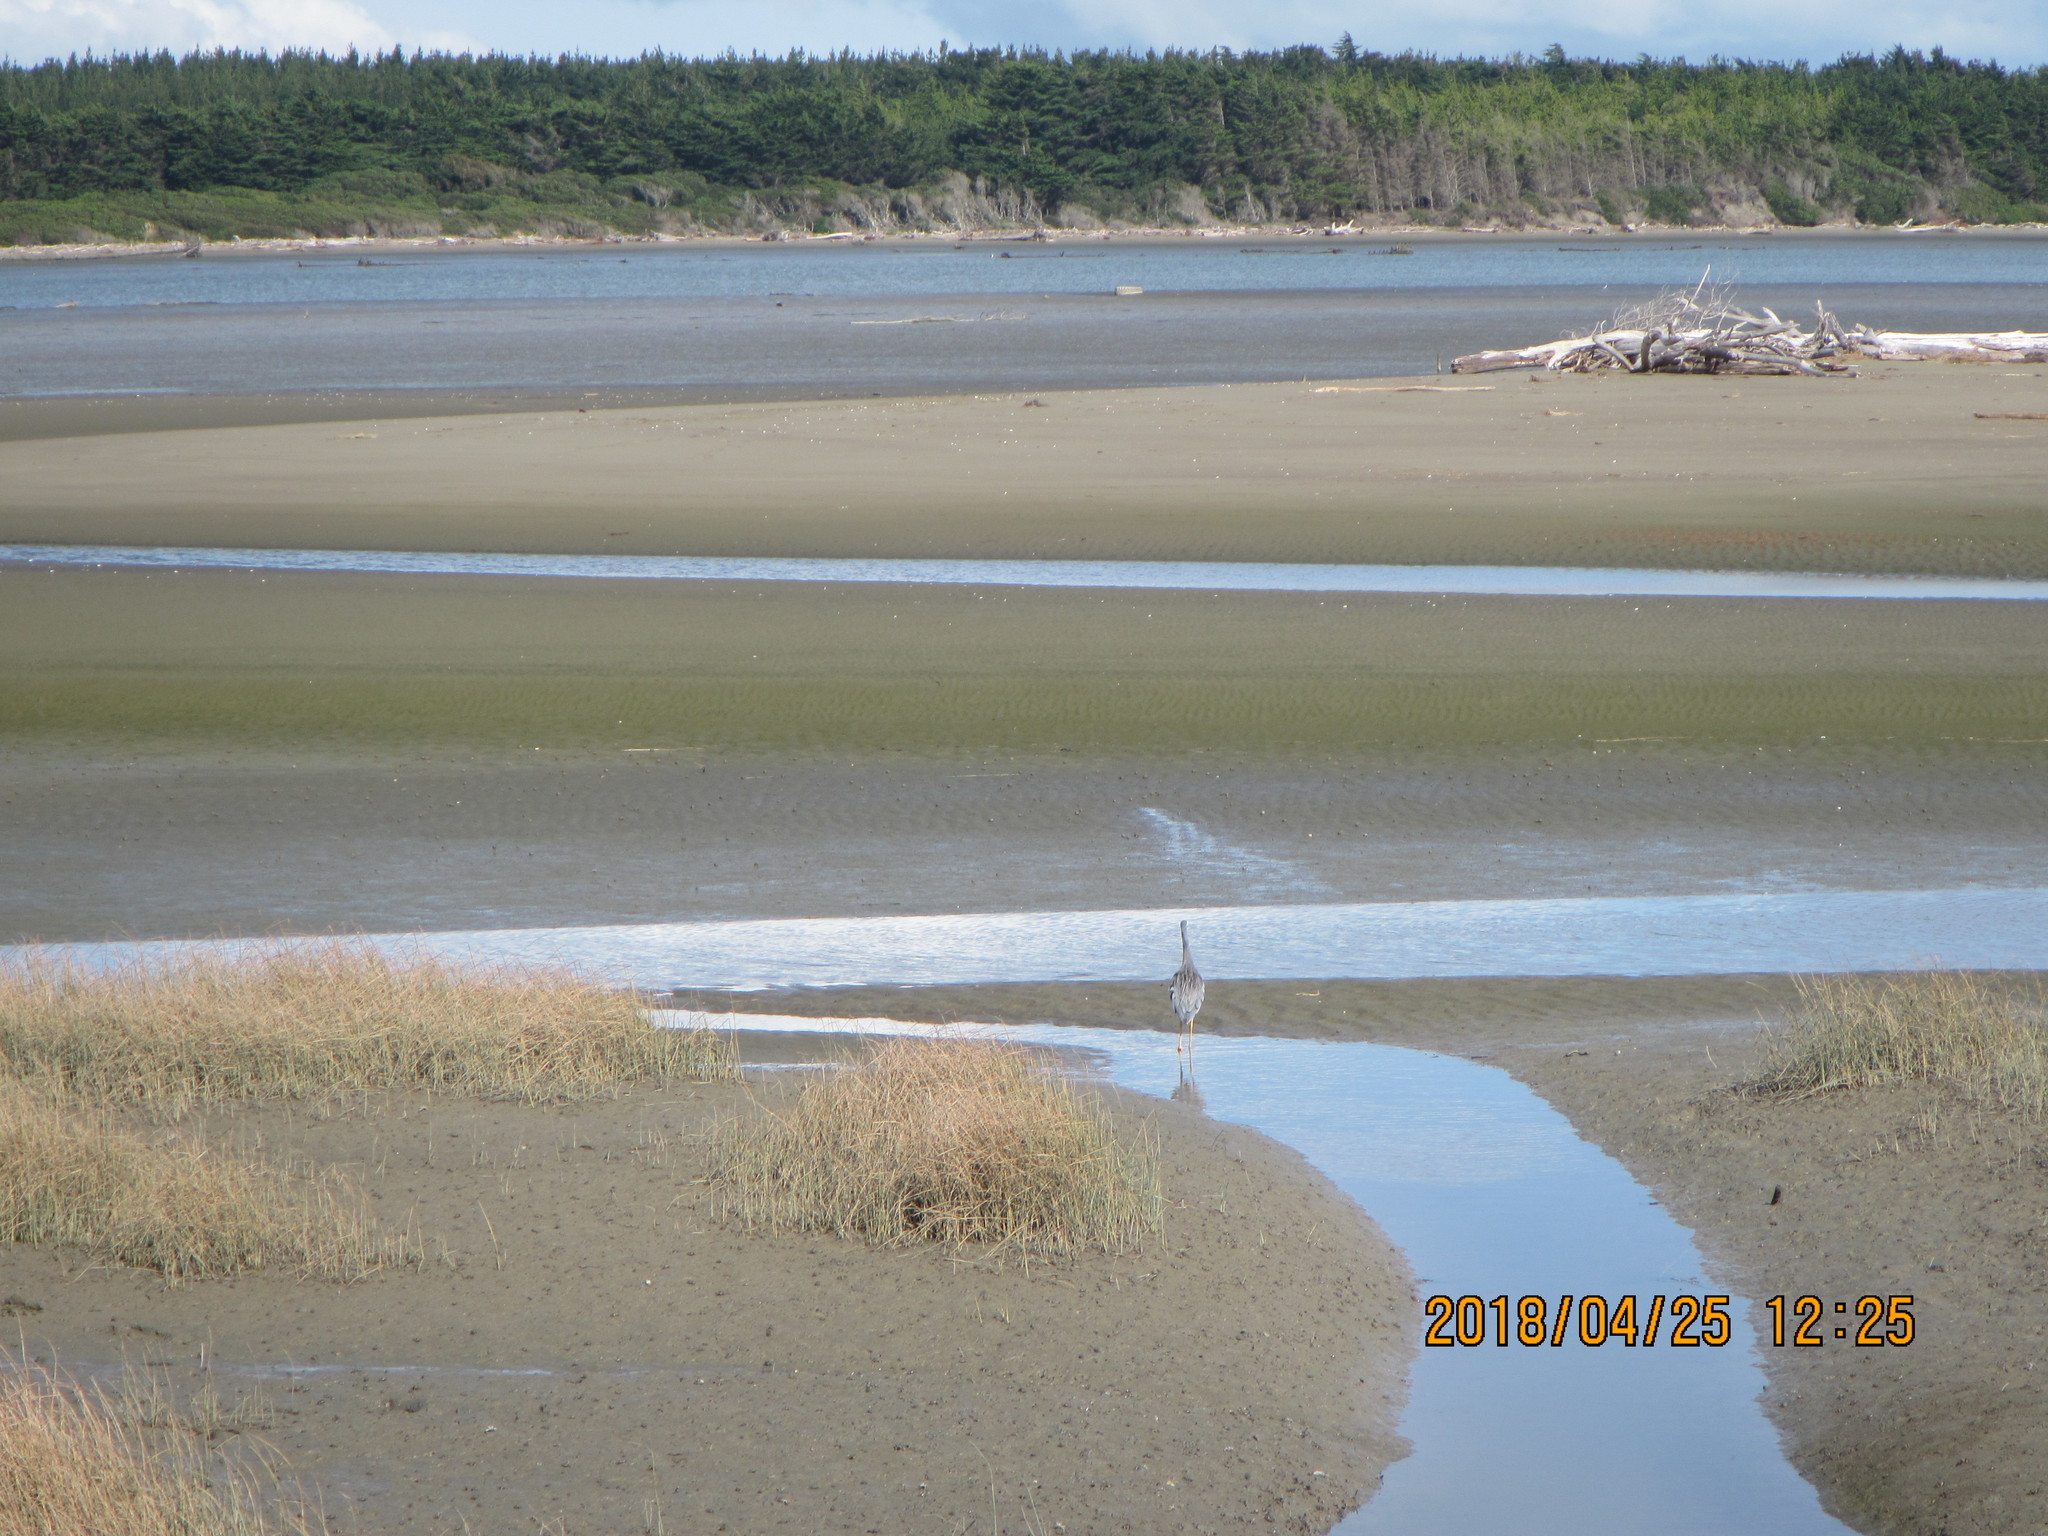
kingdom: Animalia
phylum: Chordata
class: Aves
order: Pelecaniformes
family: Ardeidae
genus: Egretta
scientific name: Egretta novaehollandiae
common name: White-faced heron
